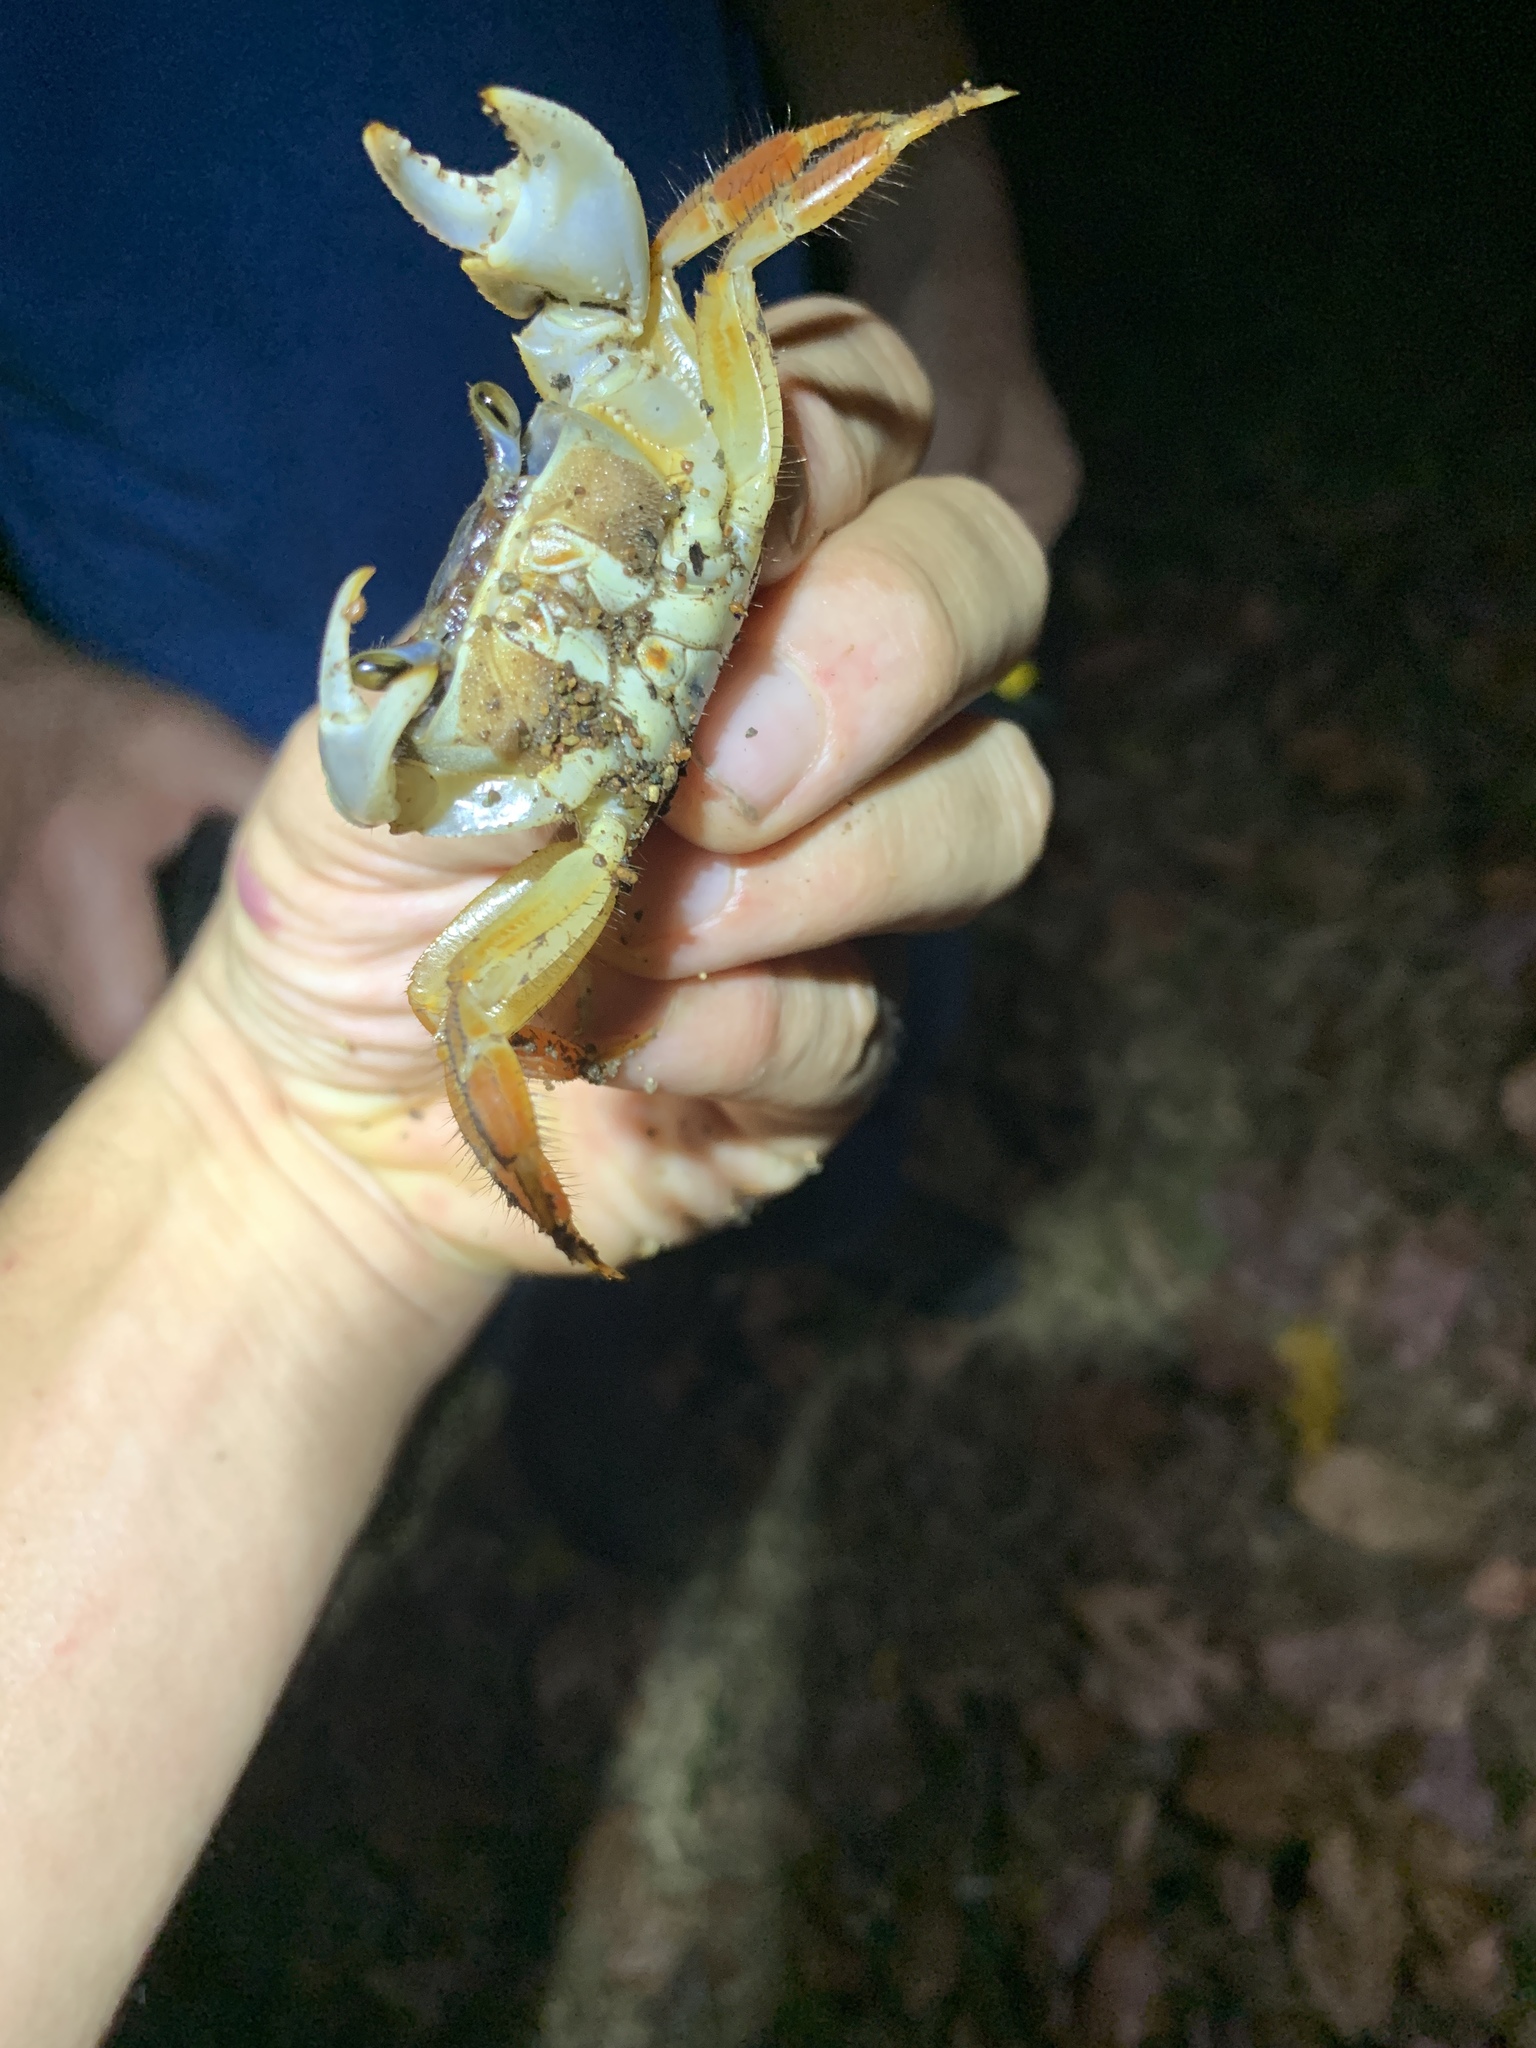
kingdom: Animalia
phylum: Arthropoda
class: Malacostraca
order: Decapoda
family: Gecarcinidae
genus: Cardisoma
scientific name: Cardisoma crassum
